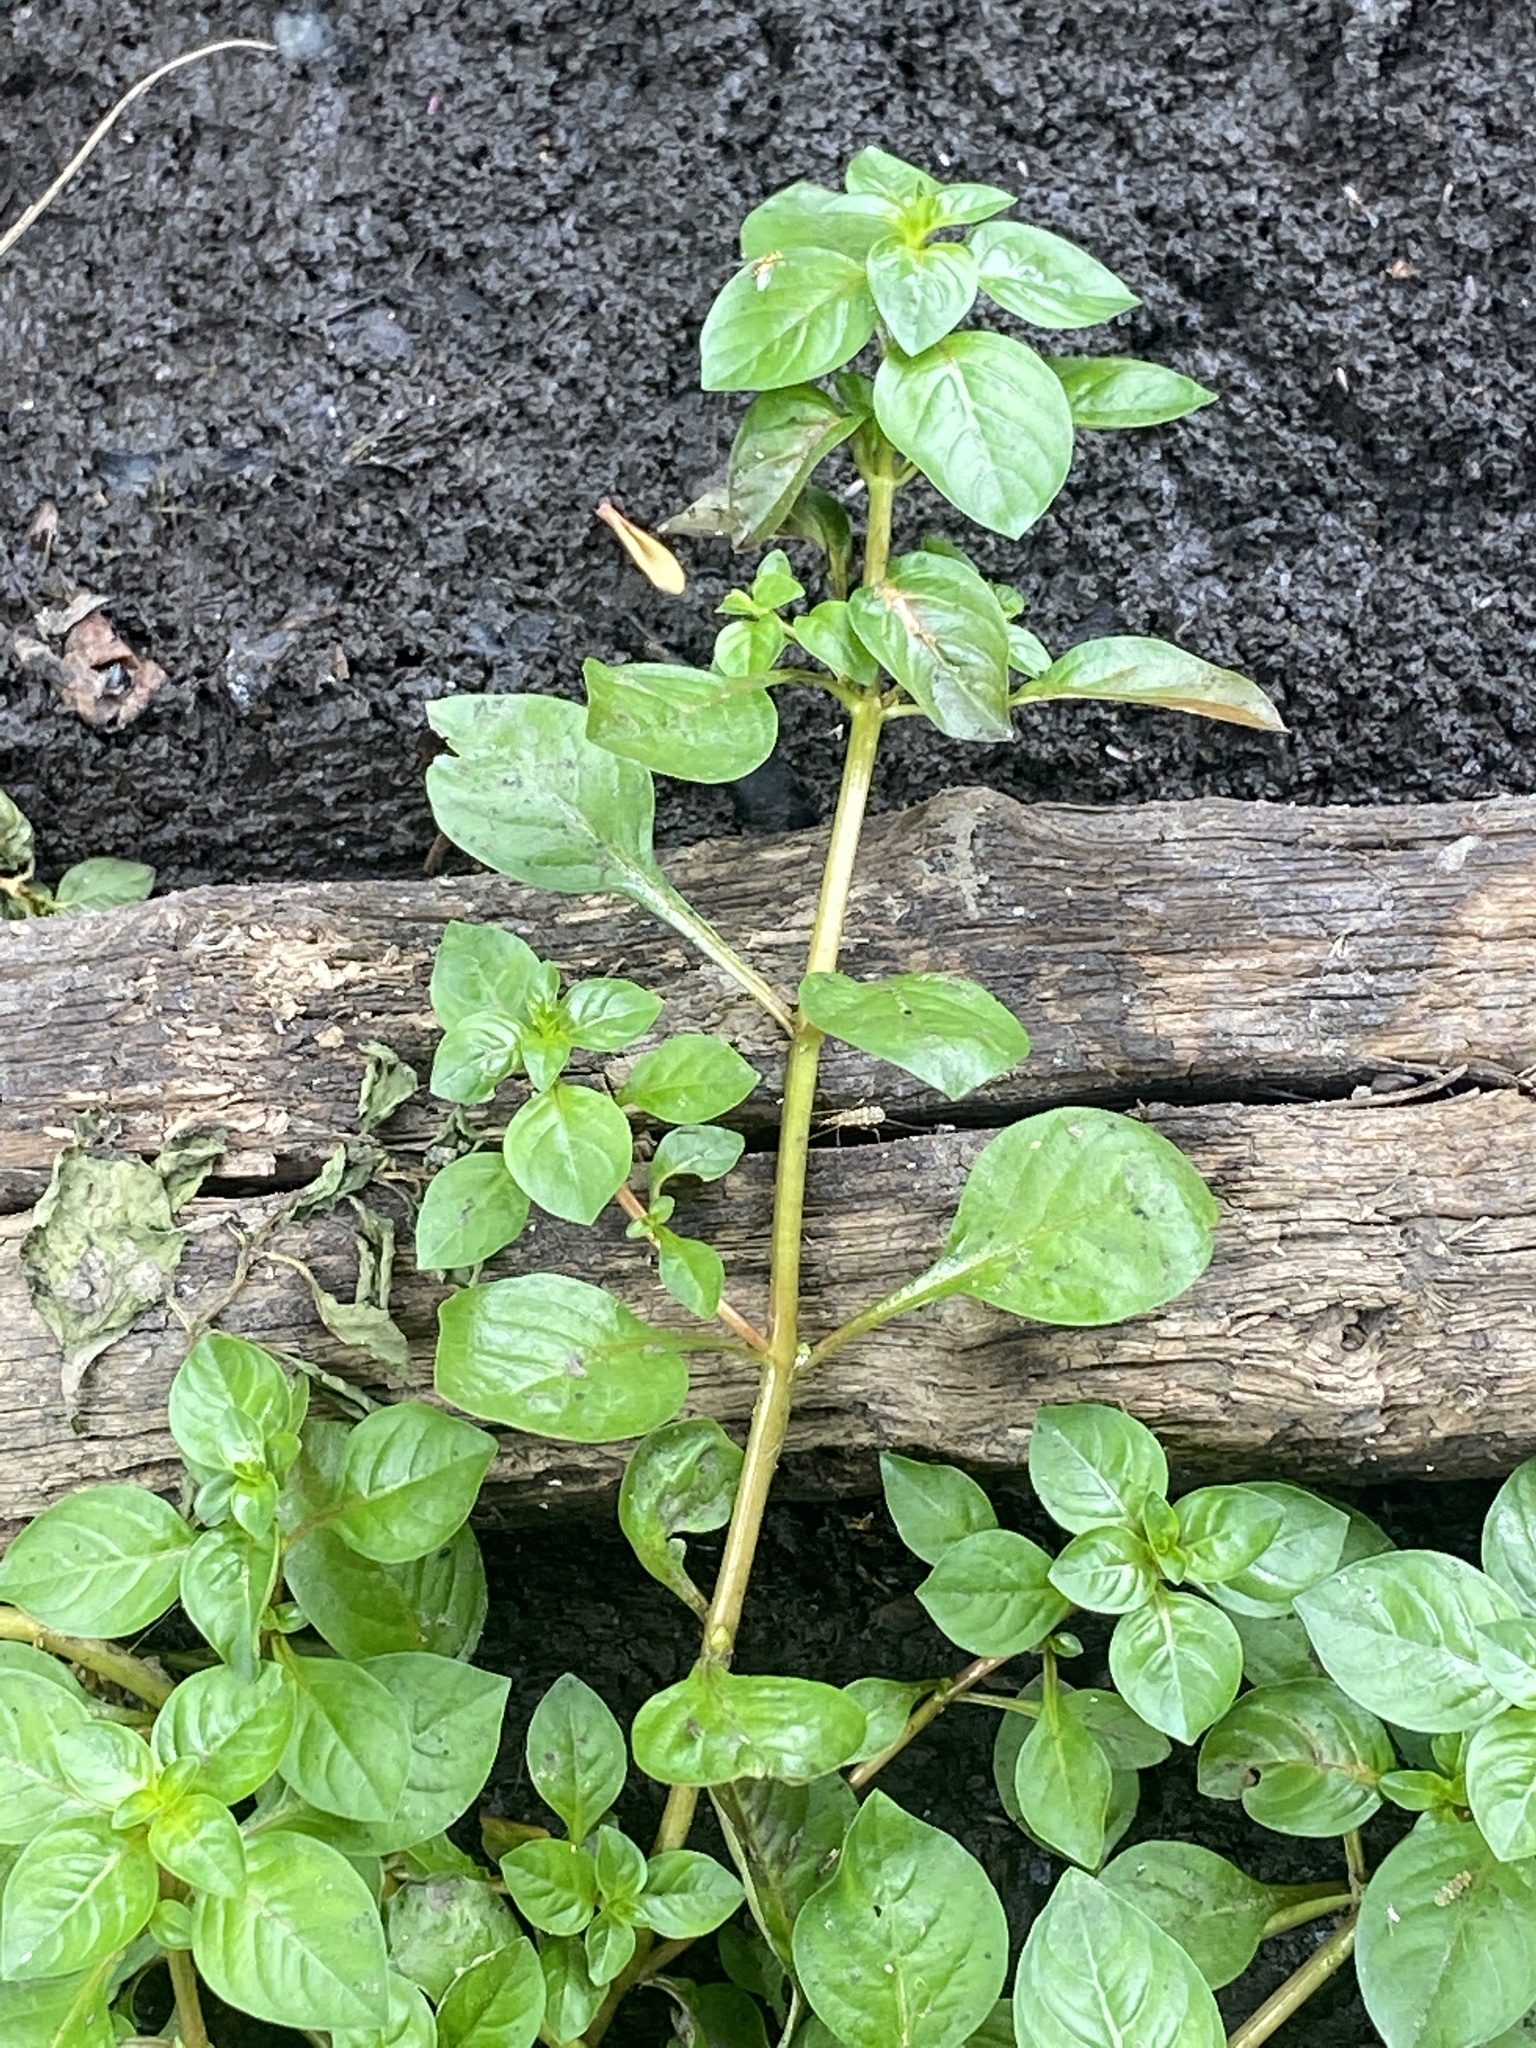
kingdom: Plantae
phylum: Tracheophyta
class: Magnoliopsida
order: Myrtales
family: Onagraceae
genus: Ludwigia
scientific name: Ludwigia palustris
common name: Hampshire-purslane
